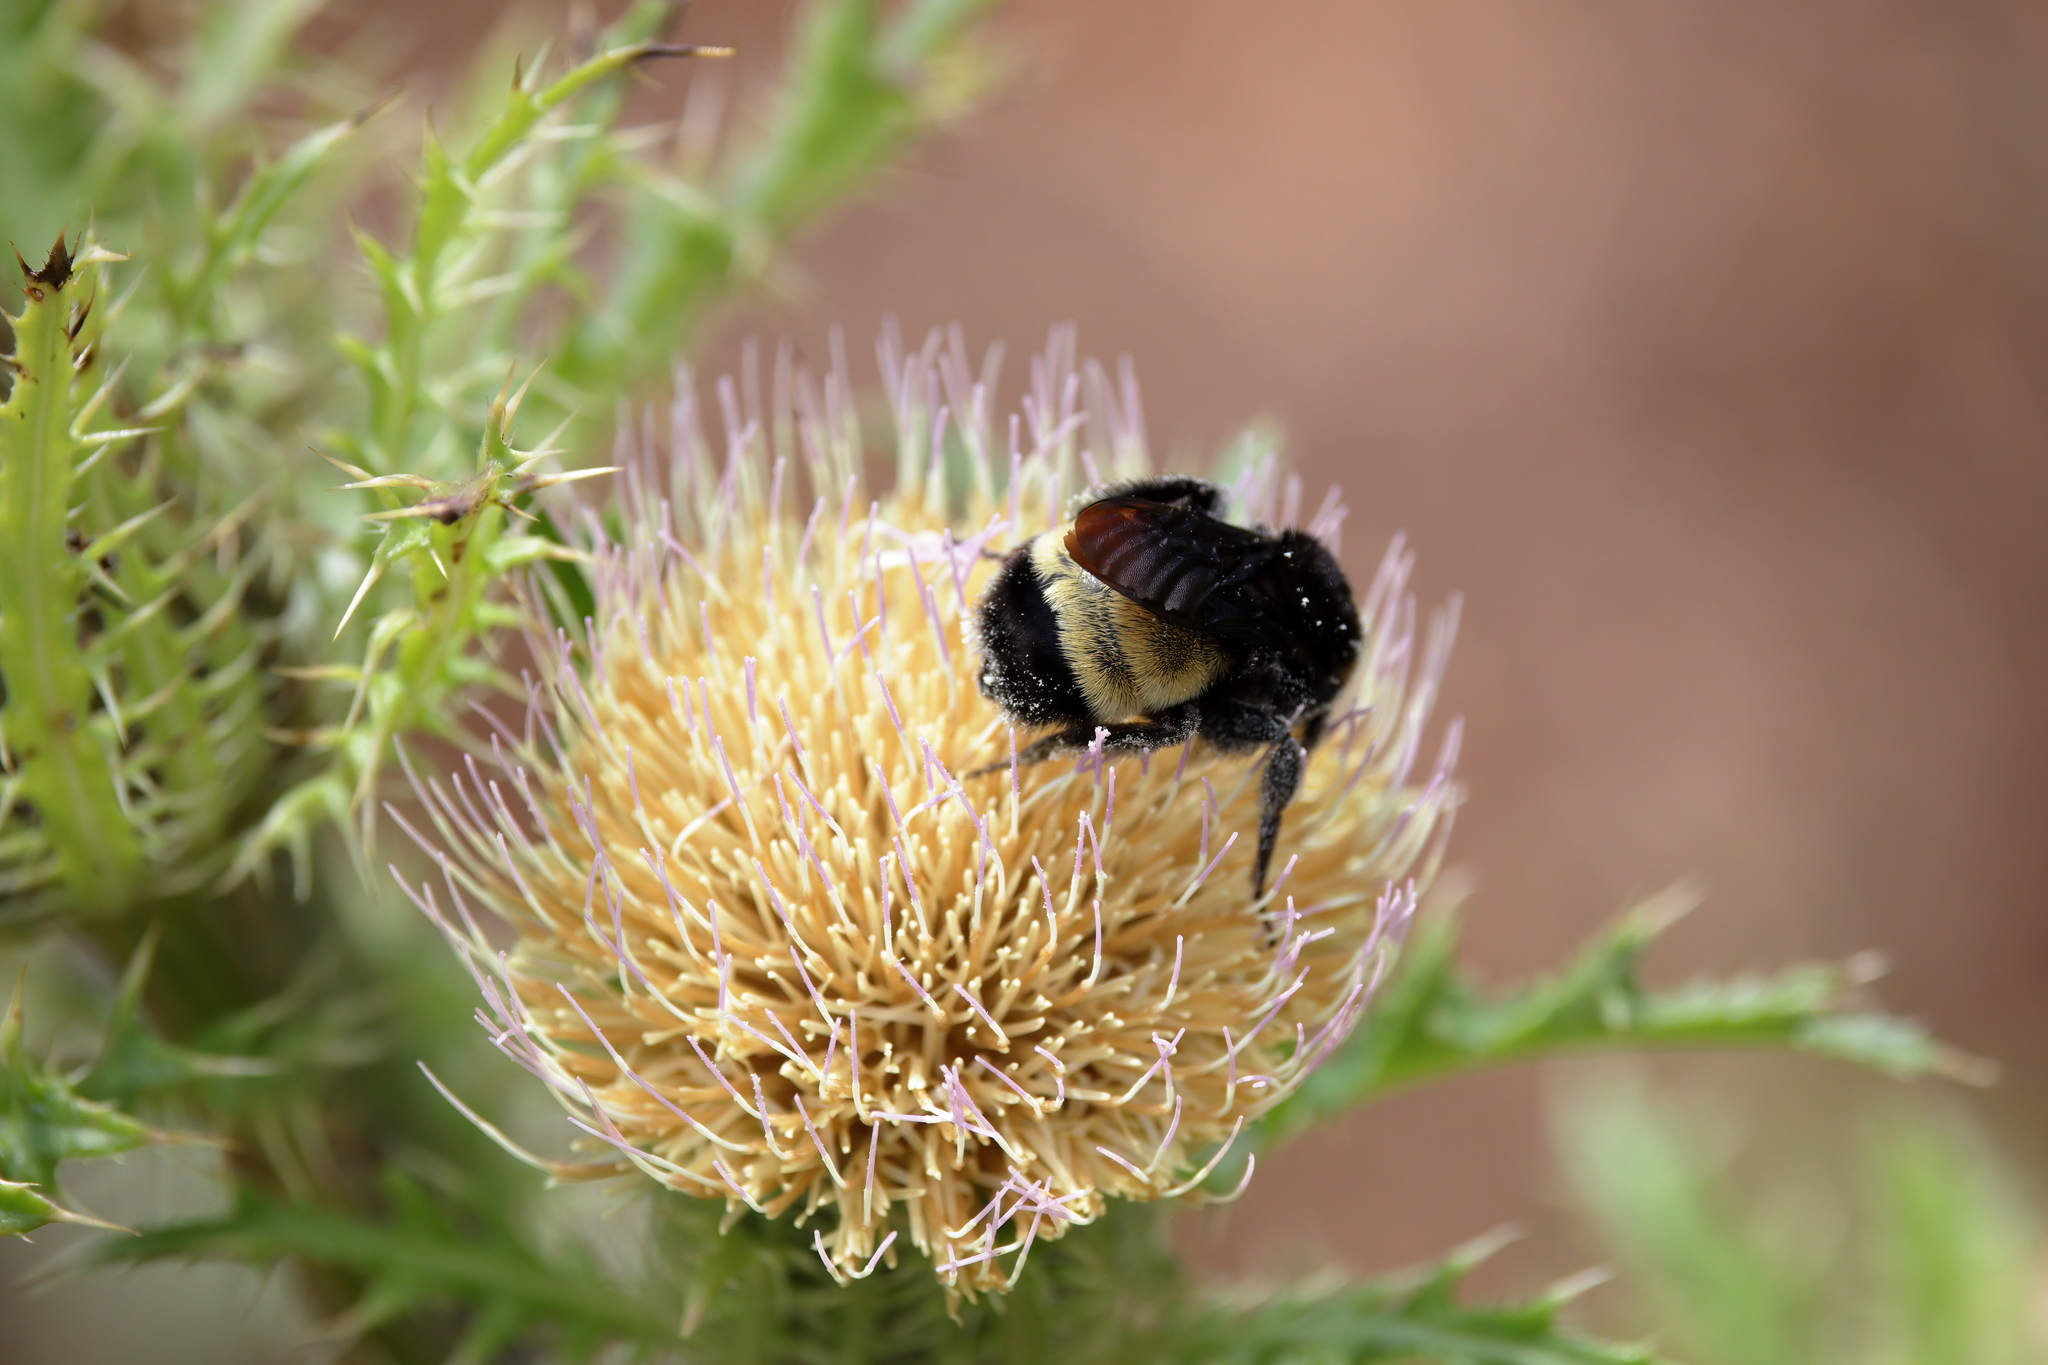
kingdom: Animalia
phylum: Arthropoda
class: Insecta
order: Hymenoptera
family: Apidae
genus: Bombus
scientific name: Bombus pensylvanicus
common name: Bumble bee
